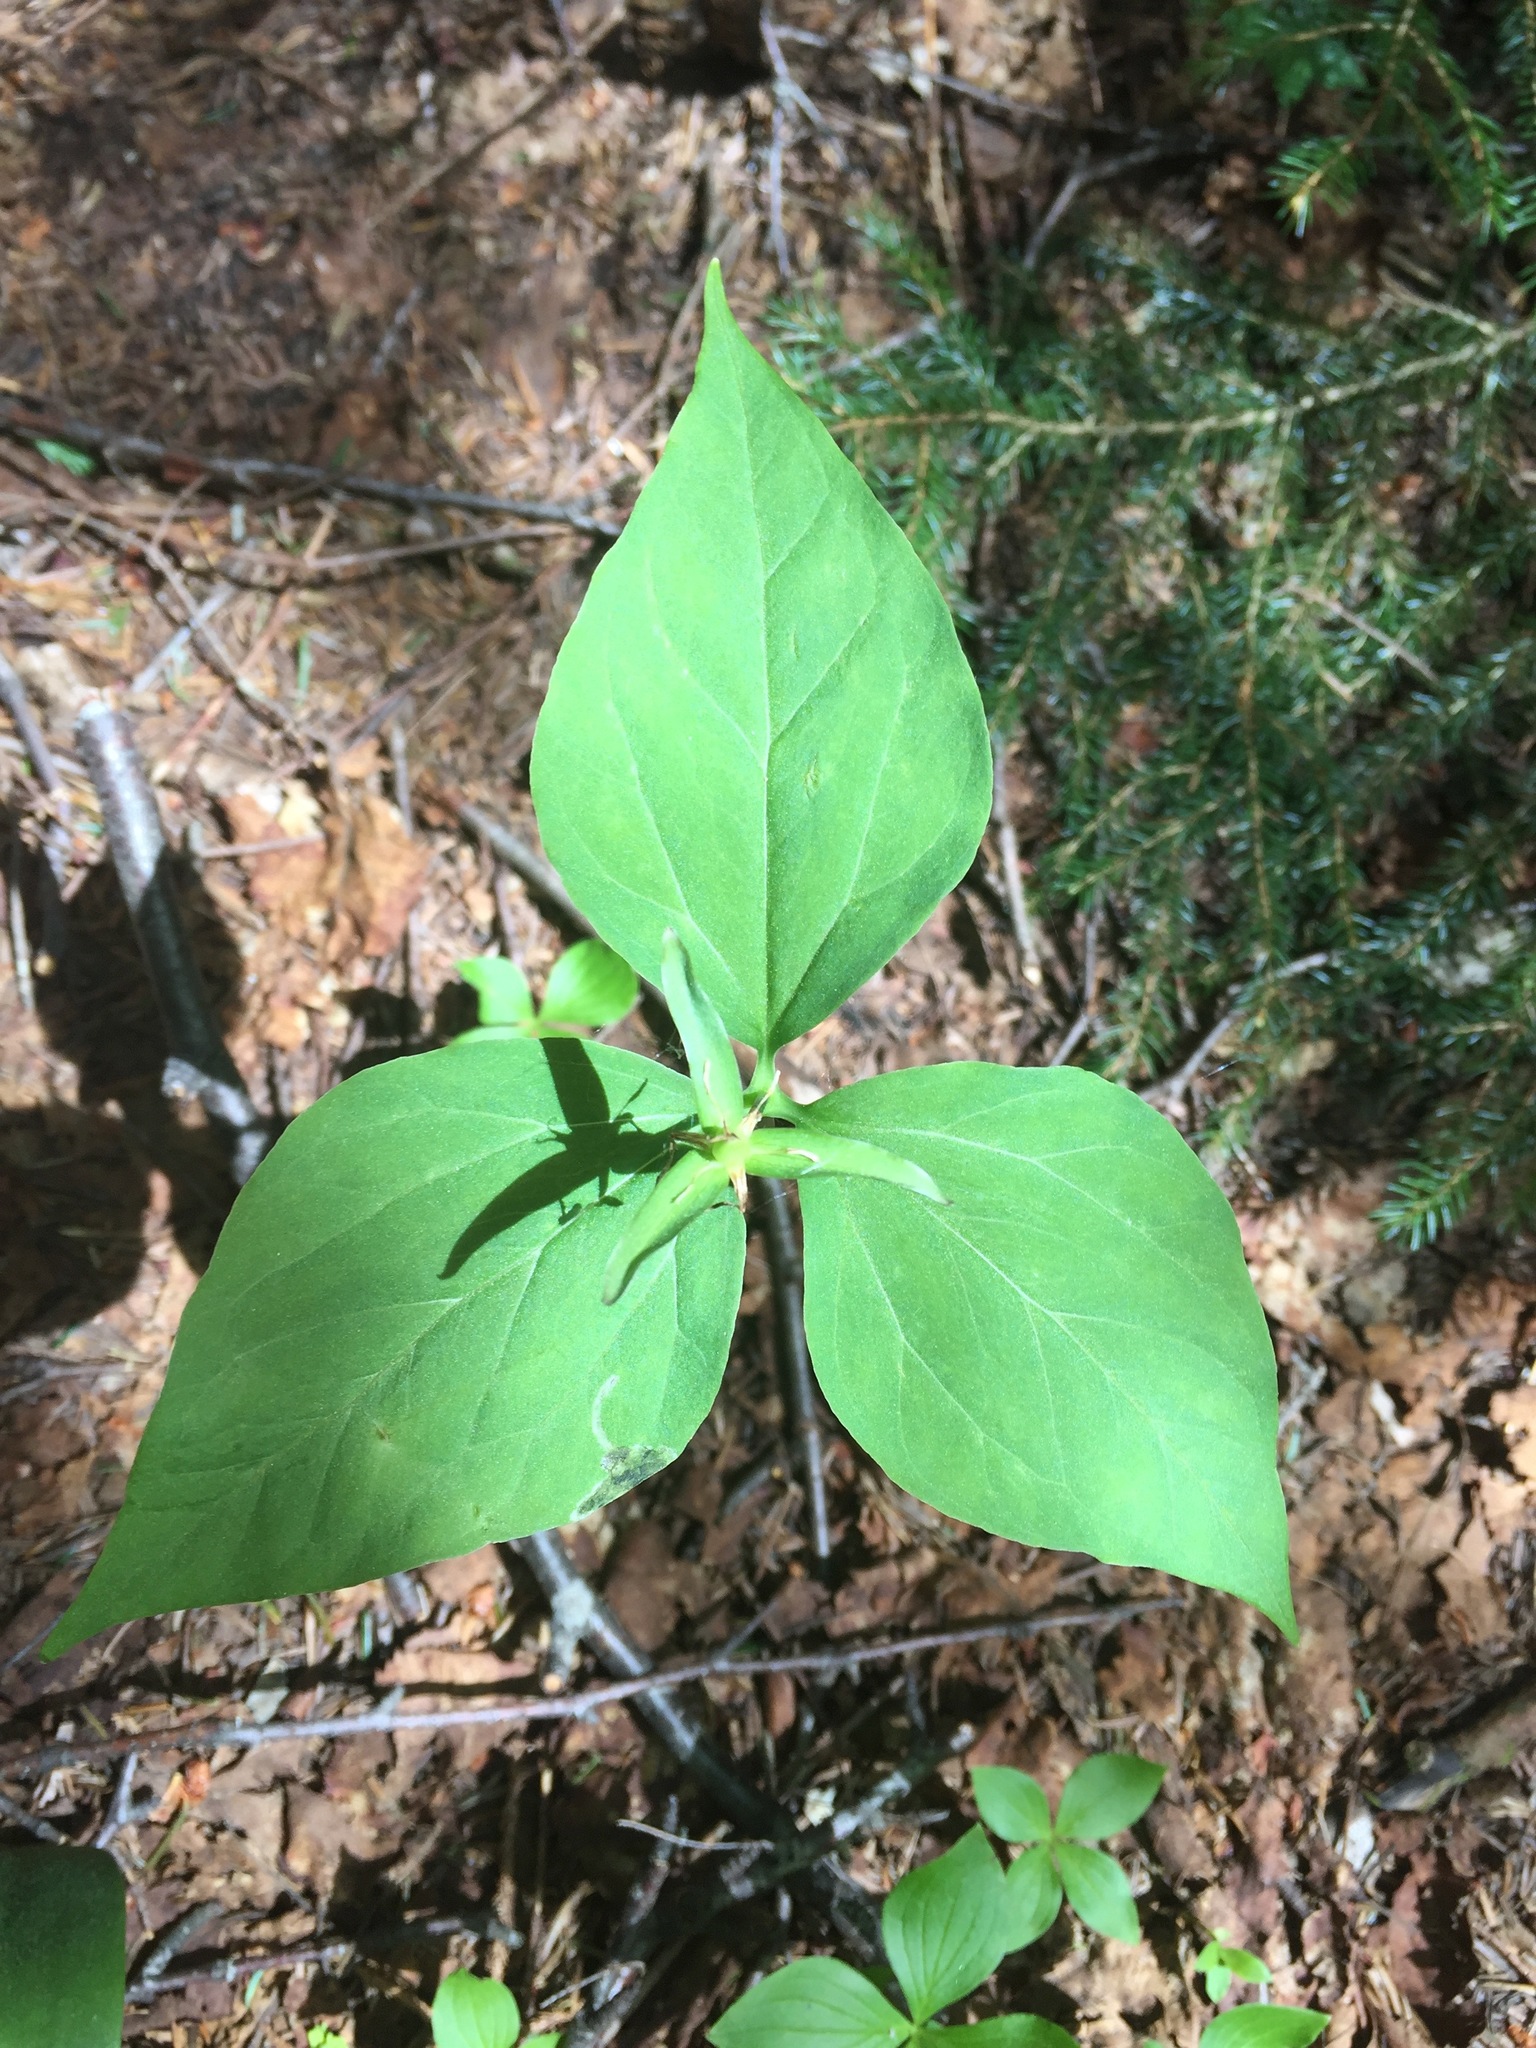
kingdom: Plantae
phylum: Tracheophyta
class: Liliopsida
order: Liliales
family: Melanthiaceae
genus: Trillium
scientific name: Trillium undulatum
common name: Paint trillium
